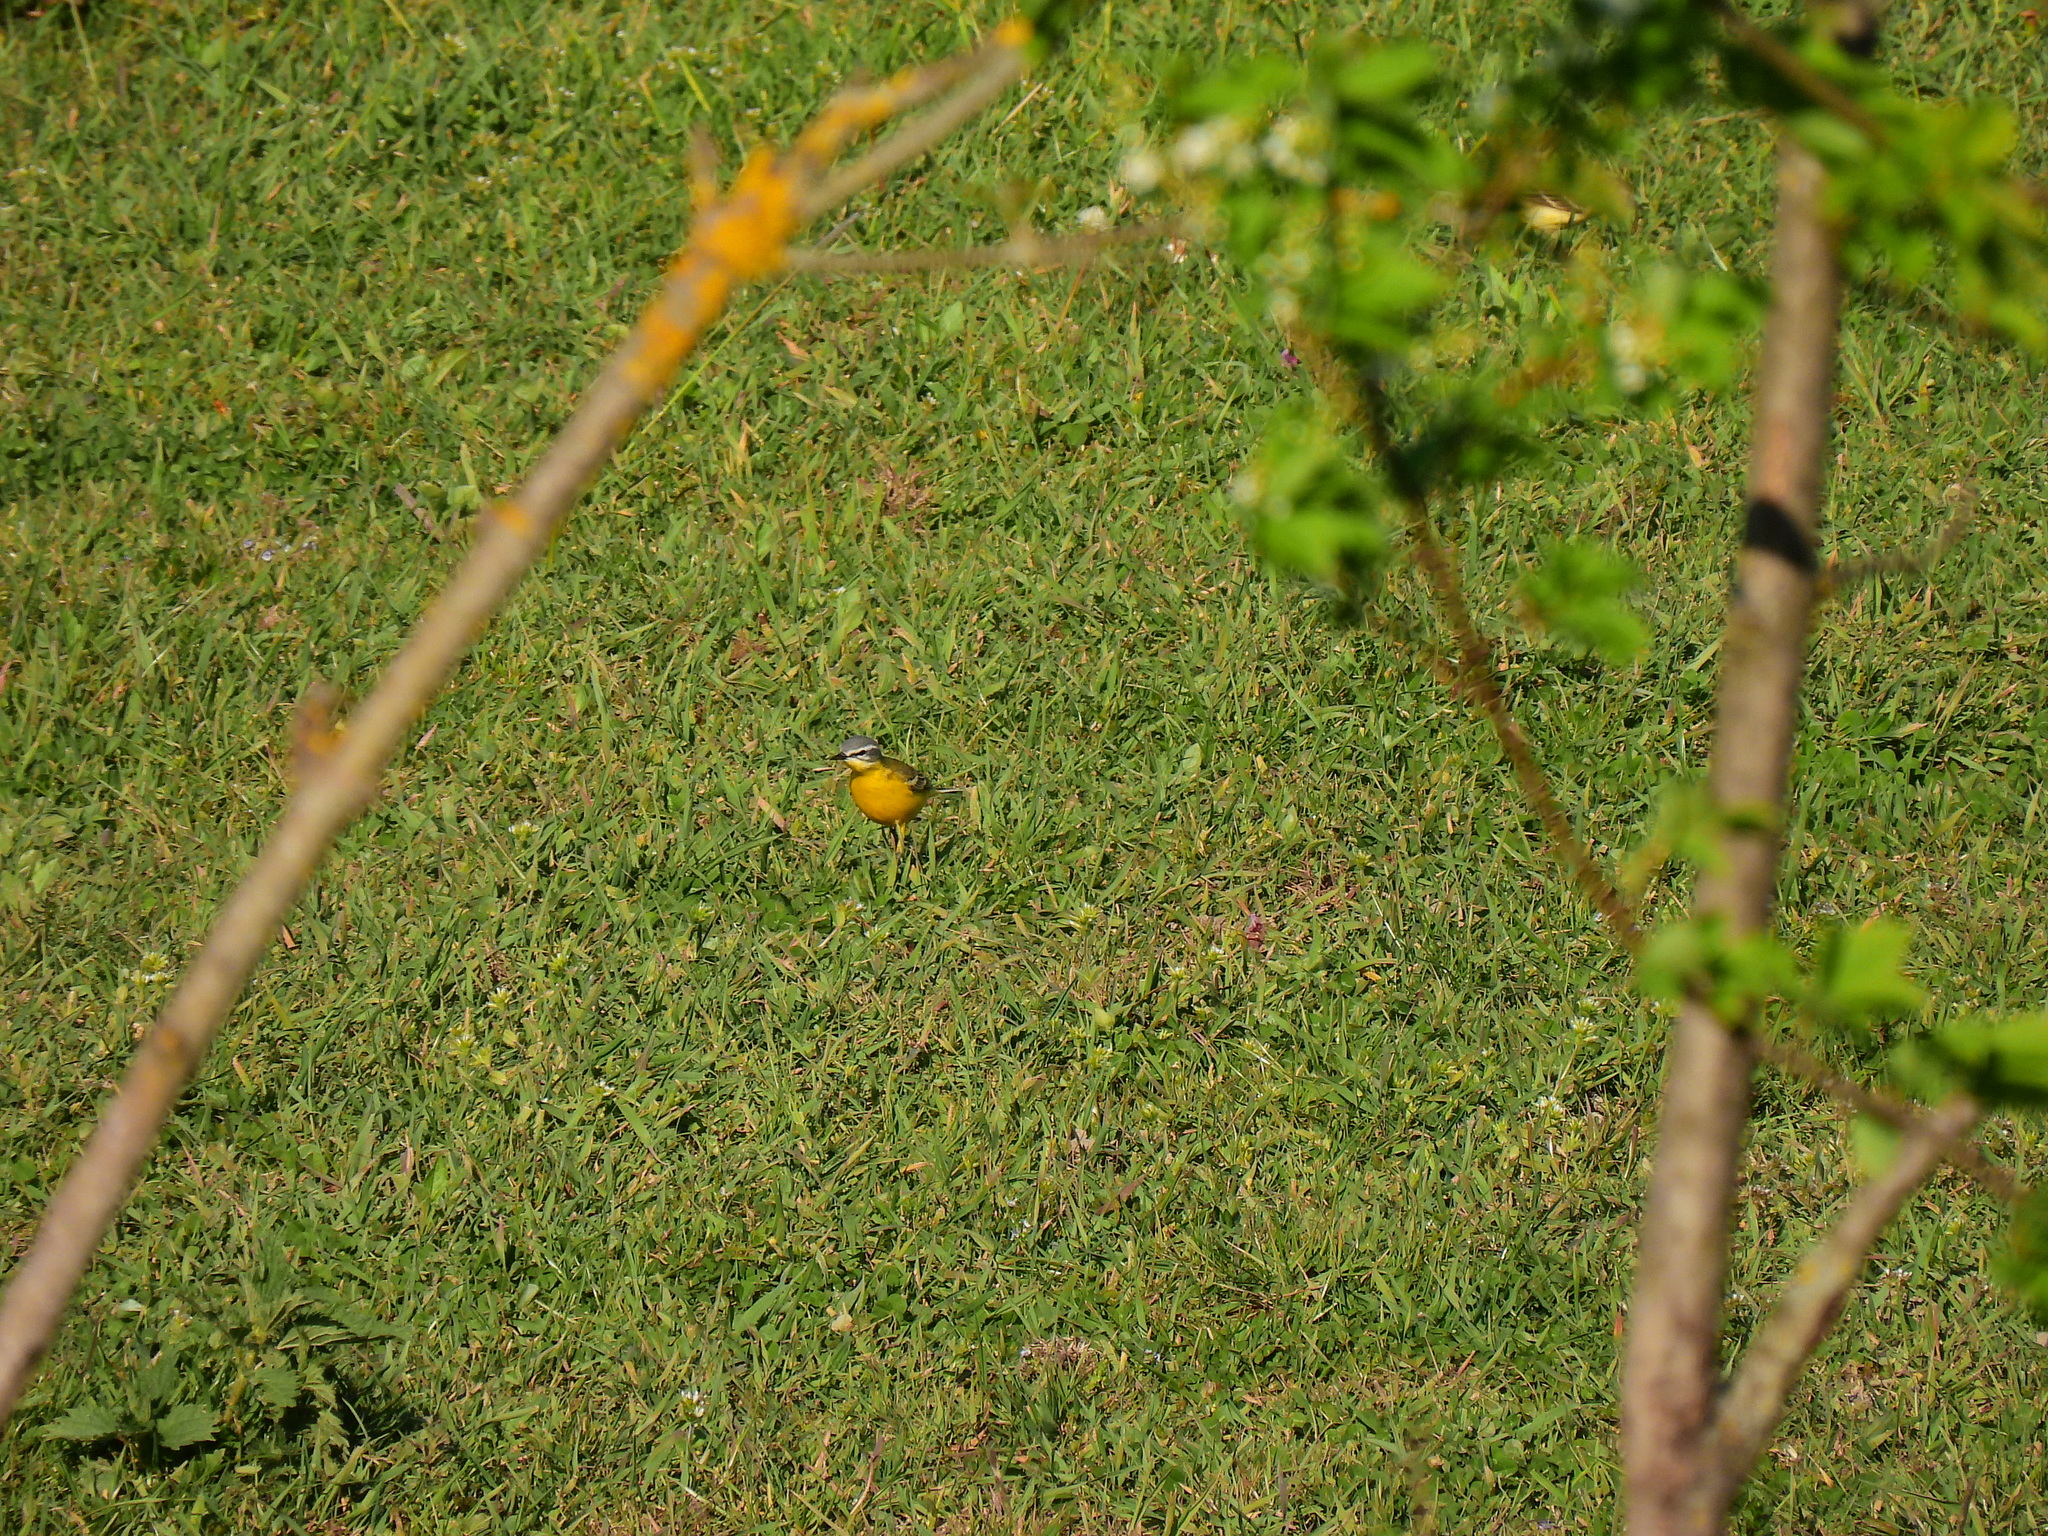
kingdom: Animalia
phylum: Chordata
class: Aves
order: Passeriformes
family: Motacillidae
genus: Motacilla
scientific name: Motacilla flava
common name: Western yellow wagtail
